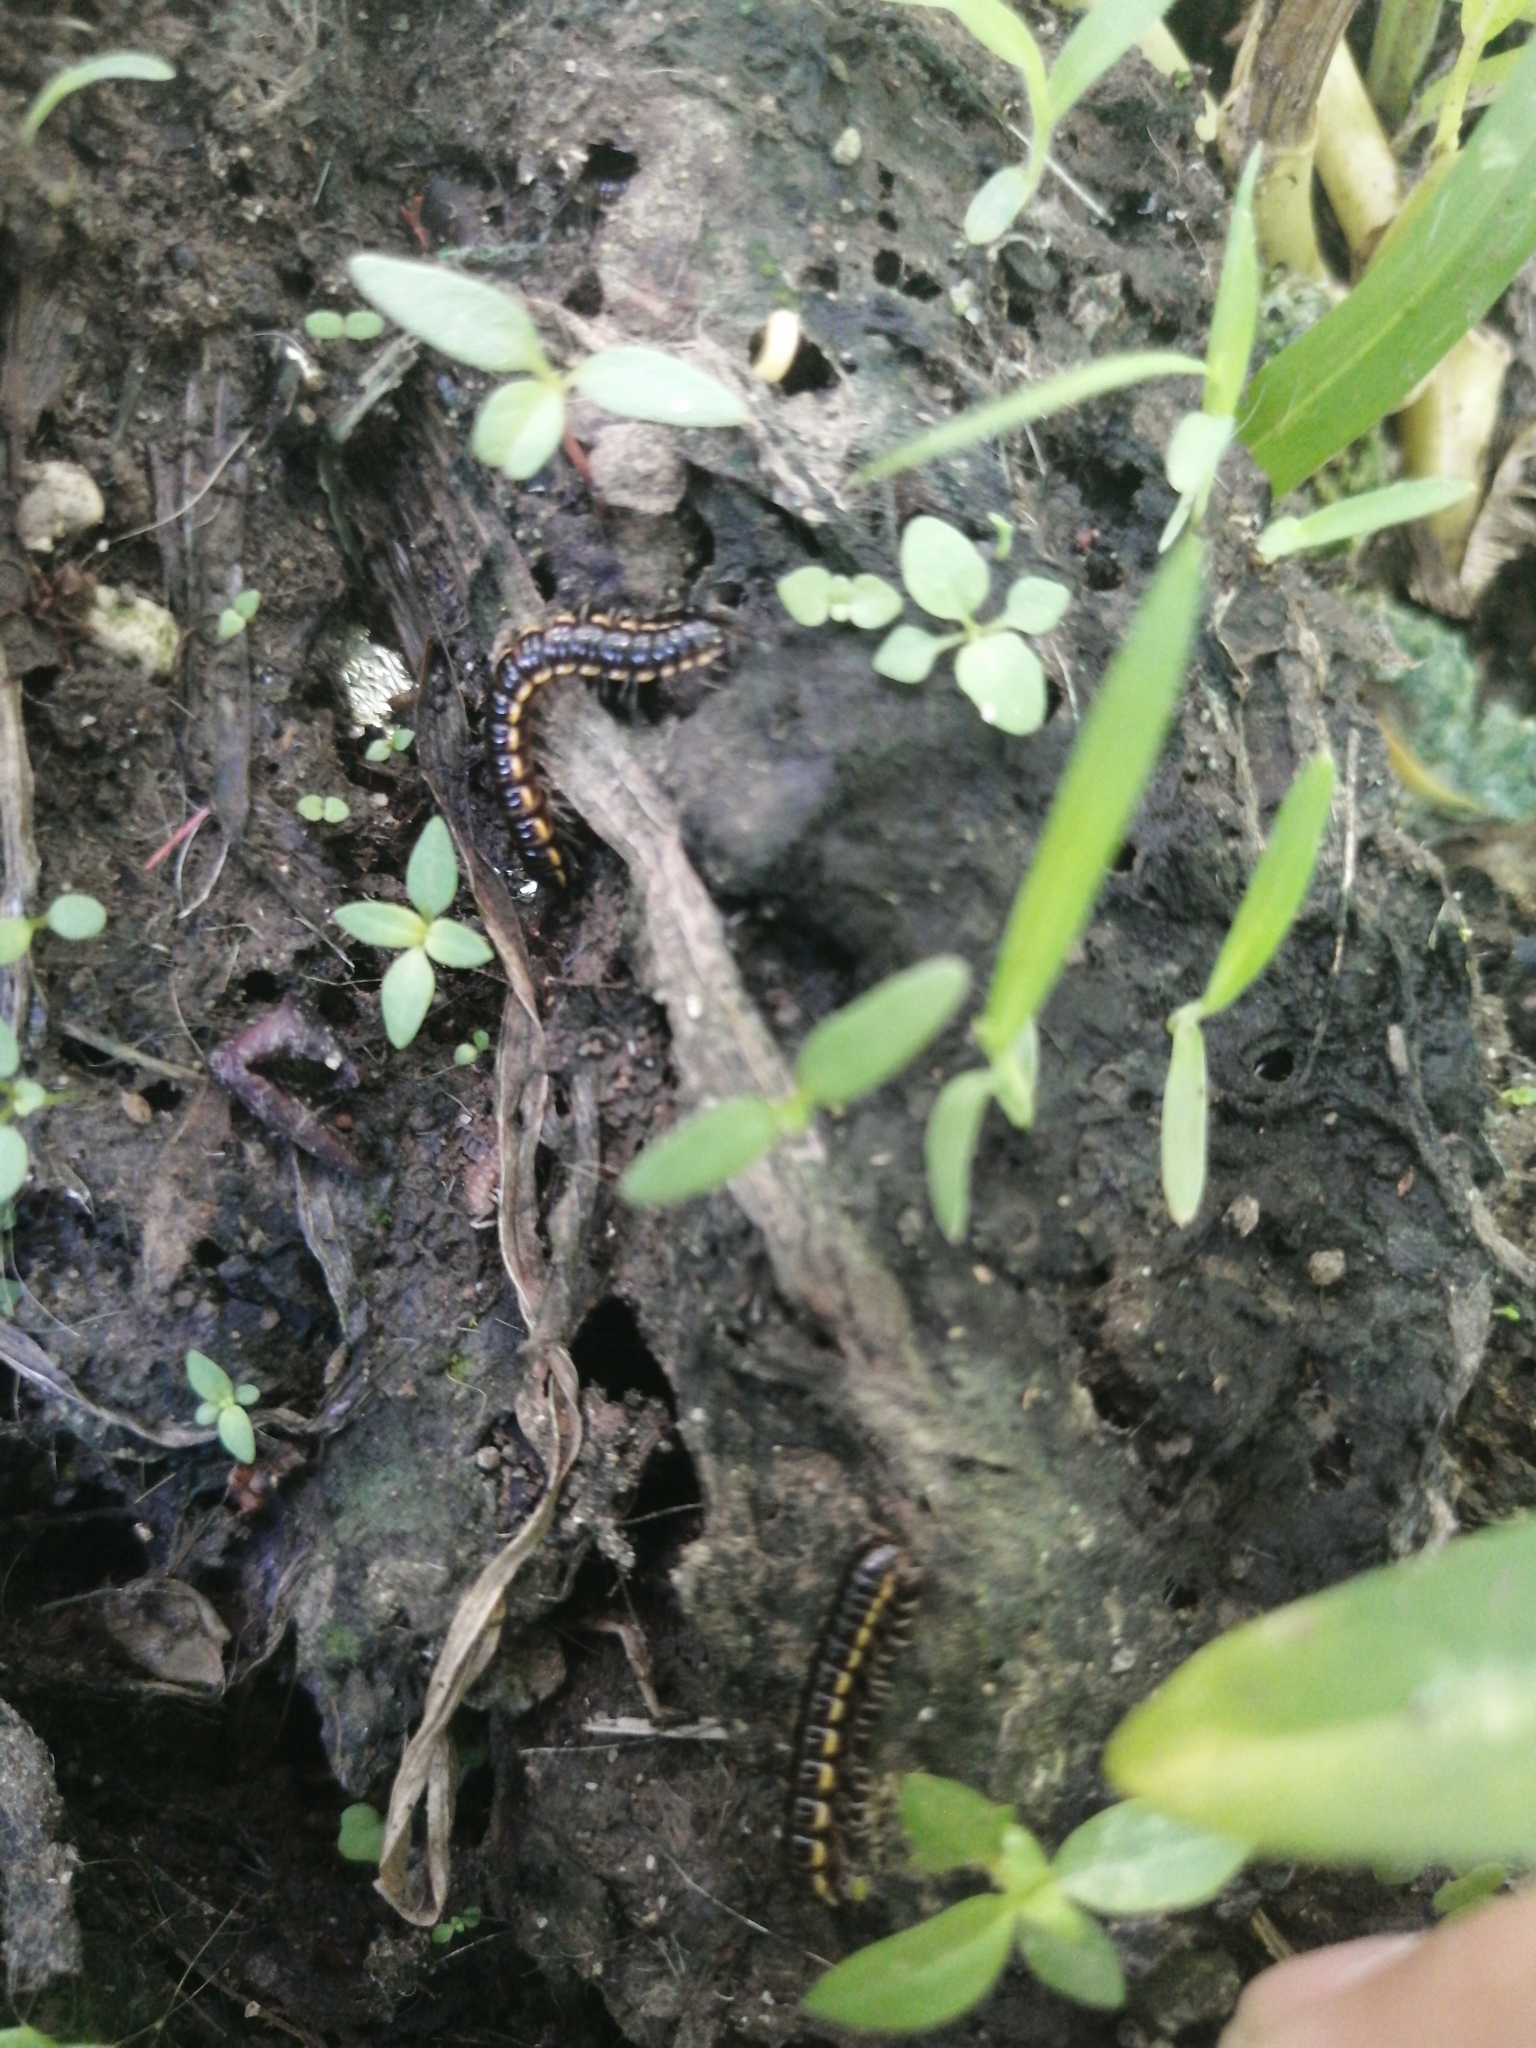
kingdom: Animalia
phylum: Arthropoda
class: Diplopoda
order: Polydesmida
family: Paradoxosomatidae
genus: Orthomorpha
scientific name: Orthomorpha coarctata
